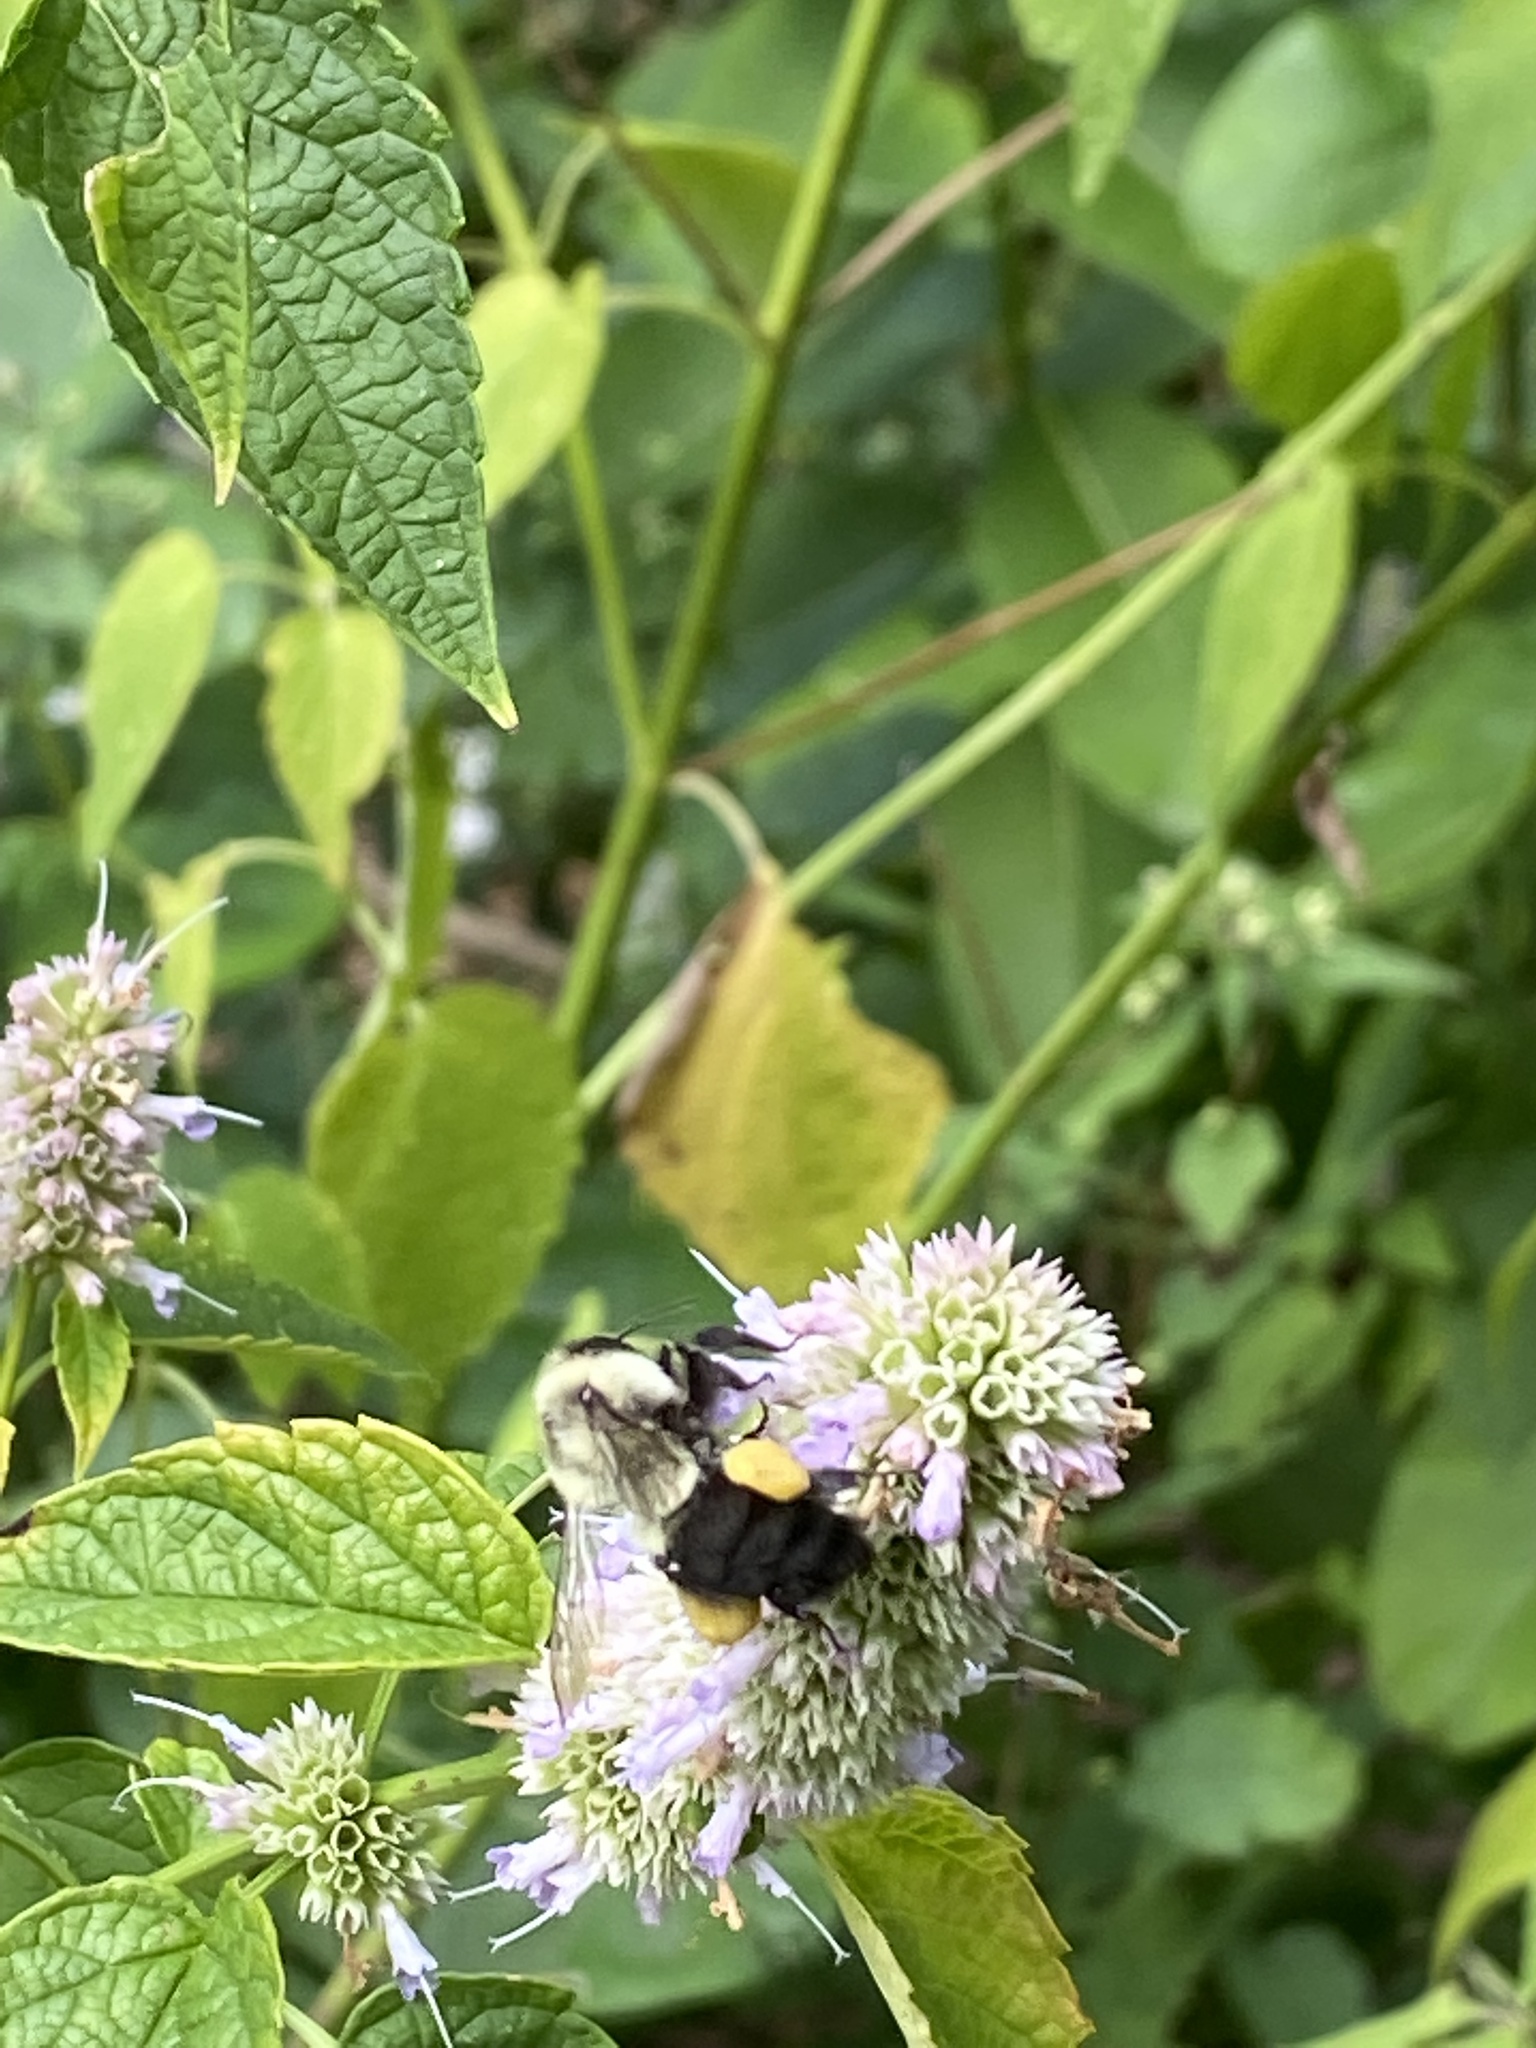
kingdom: Animalia
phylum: Arthropoda
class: Insecta
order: Hymenoptera
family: Apidae
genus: Bombus
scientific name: Bombus impatiens
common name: Common eastern bumble bee
